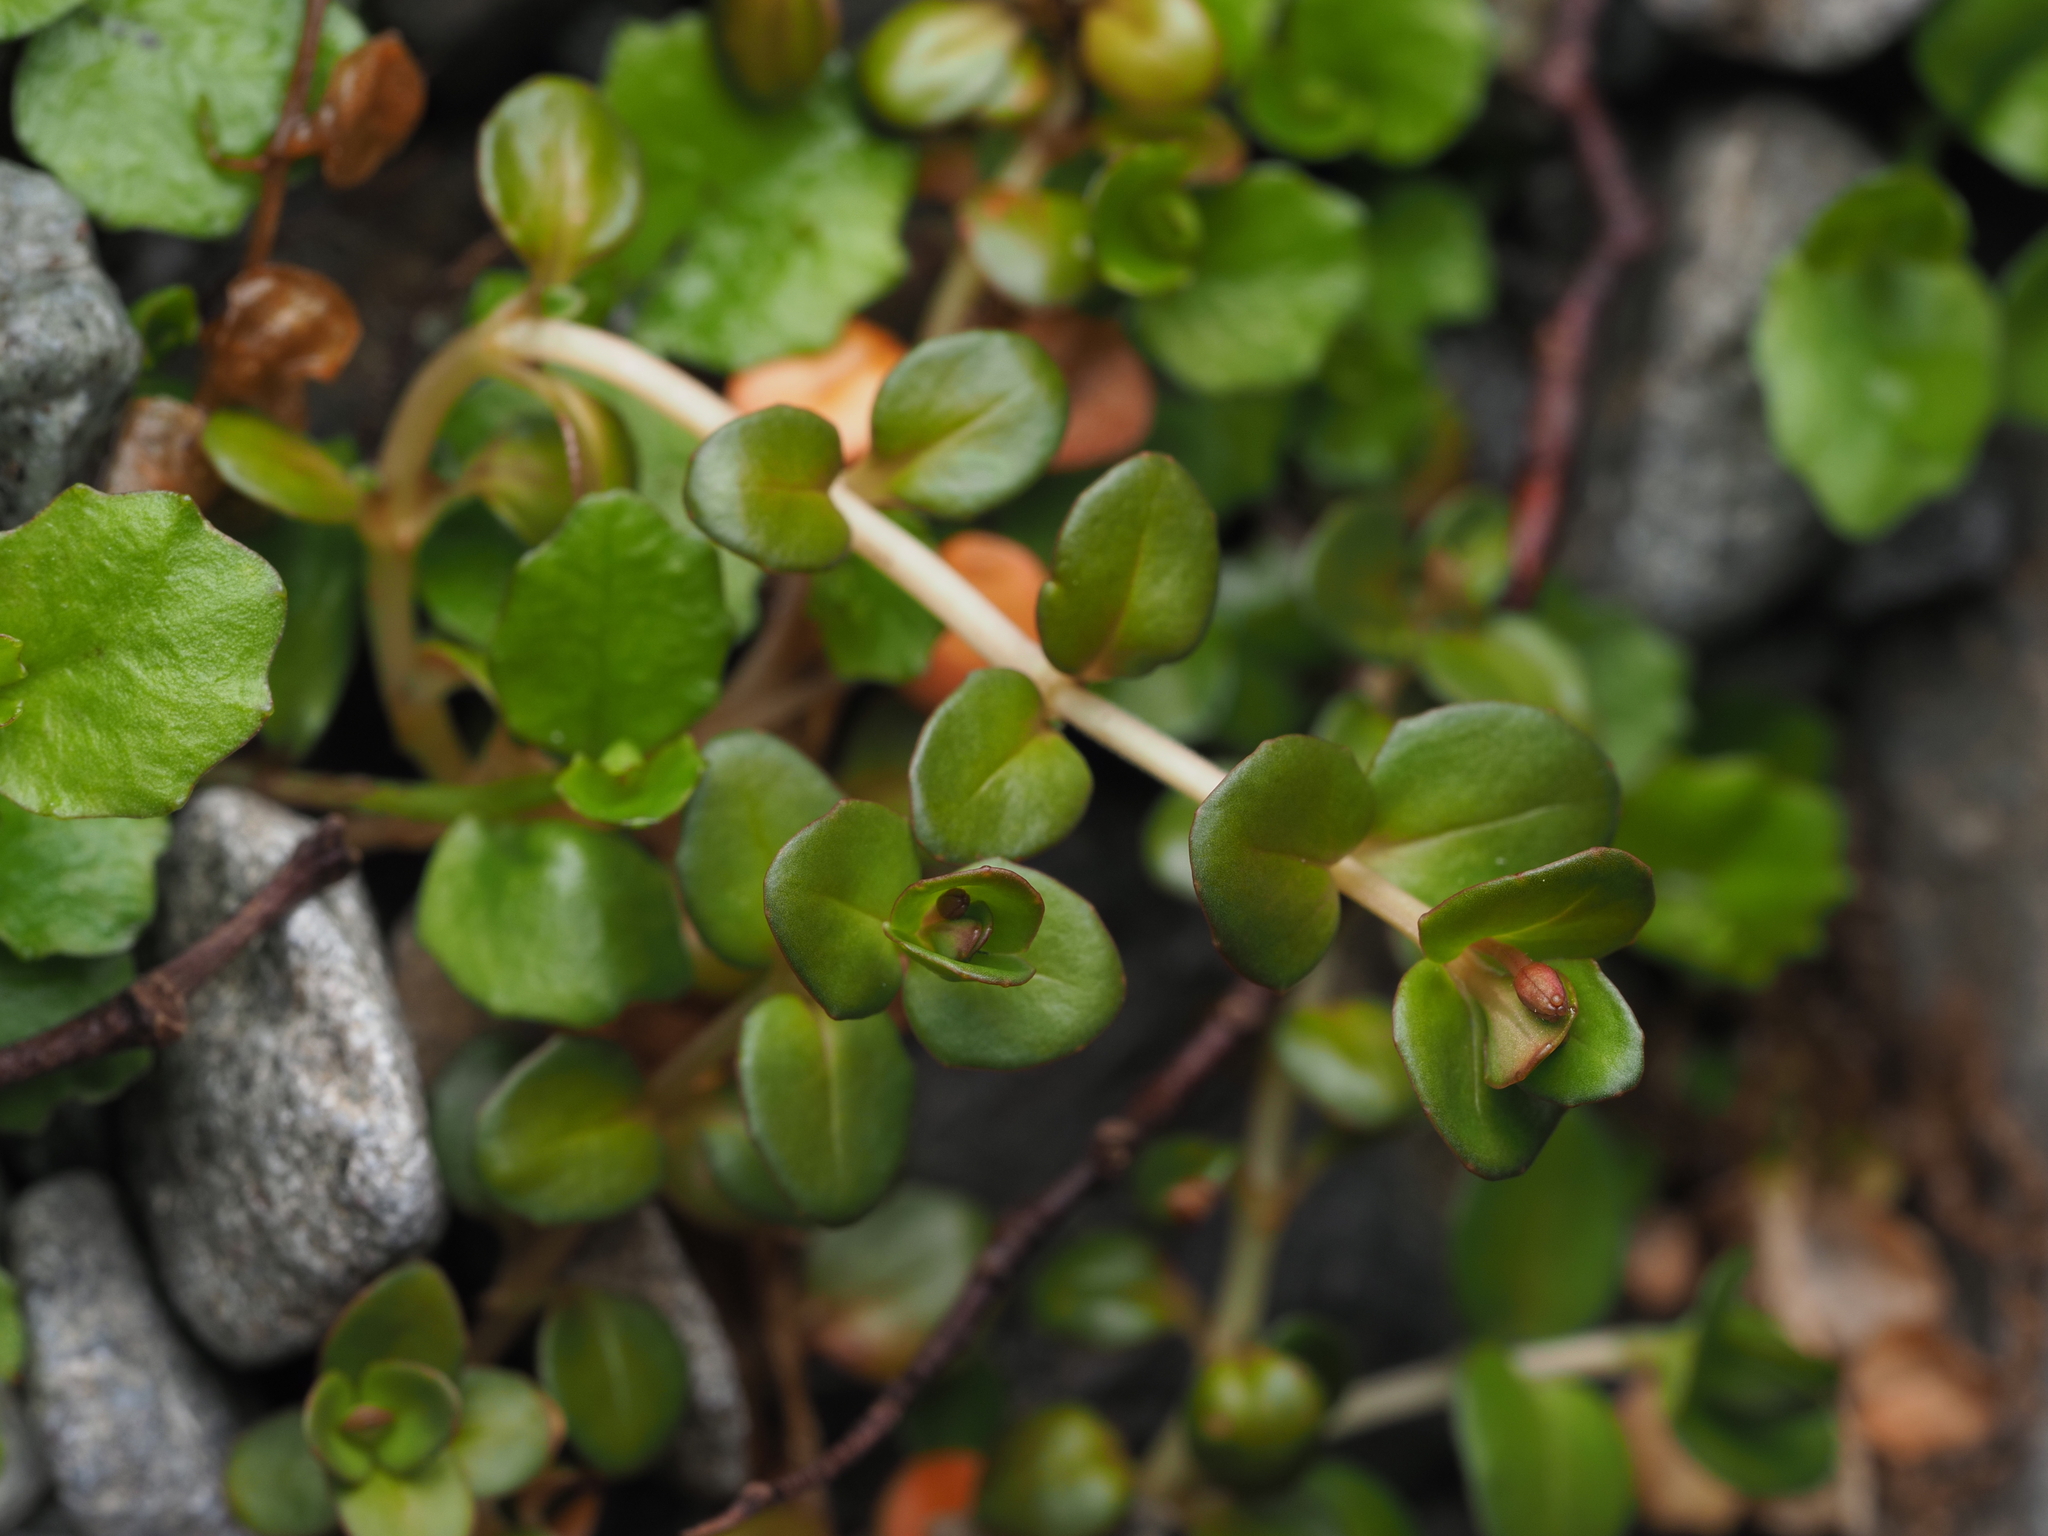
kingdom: Plantae
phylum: Tracheophyta
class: Magnoliopsida
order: Myrtales
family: Onagraceae
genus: Epilobium
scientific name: Epilobium brunnescens
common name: New zealand willowherb
